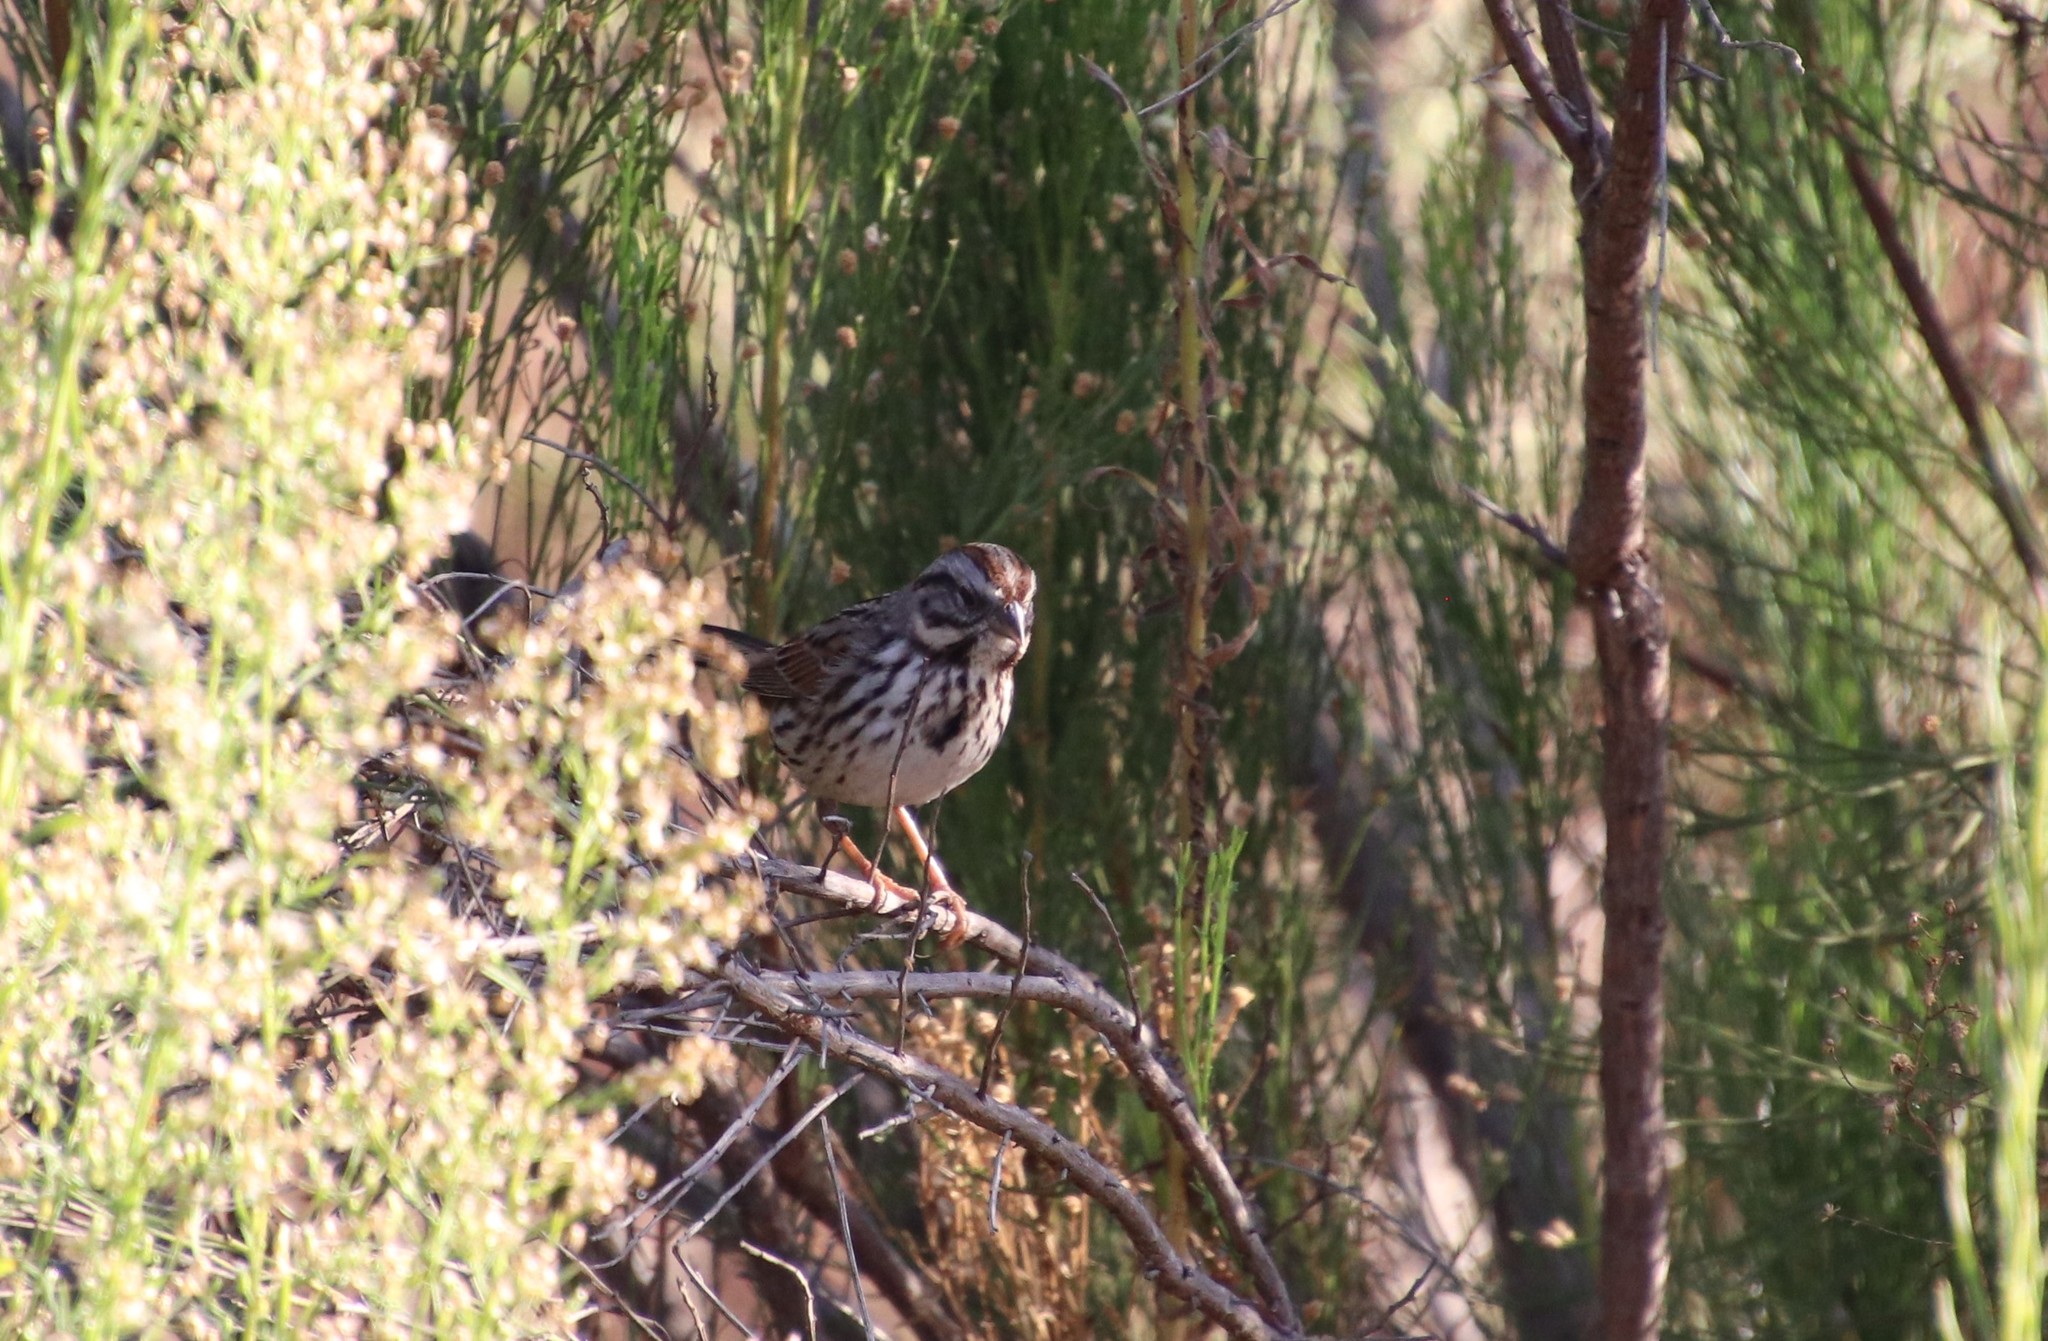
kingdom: Animalia
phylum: Chordata
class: Aves
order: Passeriformes
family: Passerellidae
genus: Melospiza
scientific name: Melospiza melodia
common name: Song sparrow
